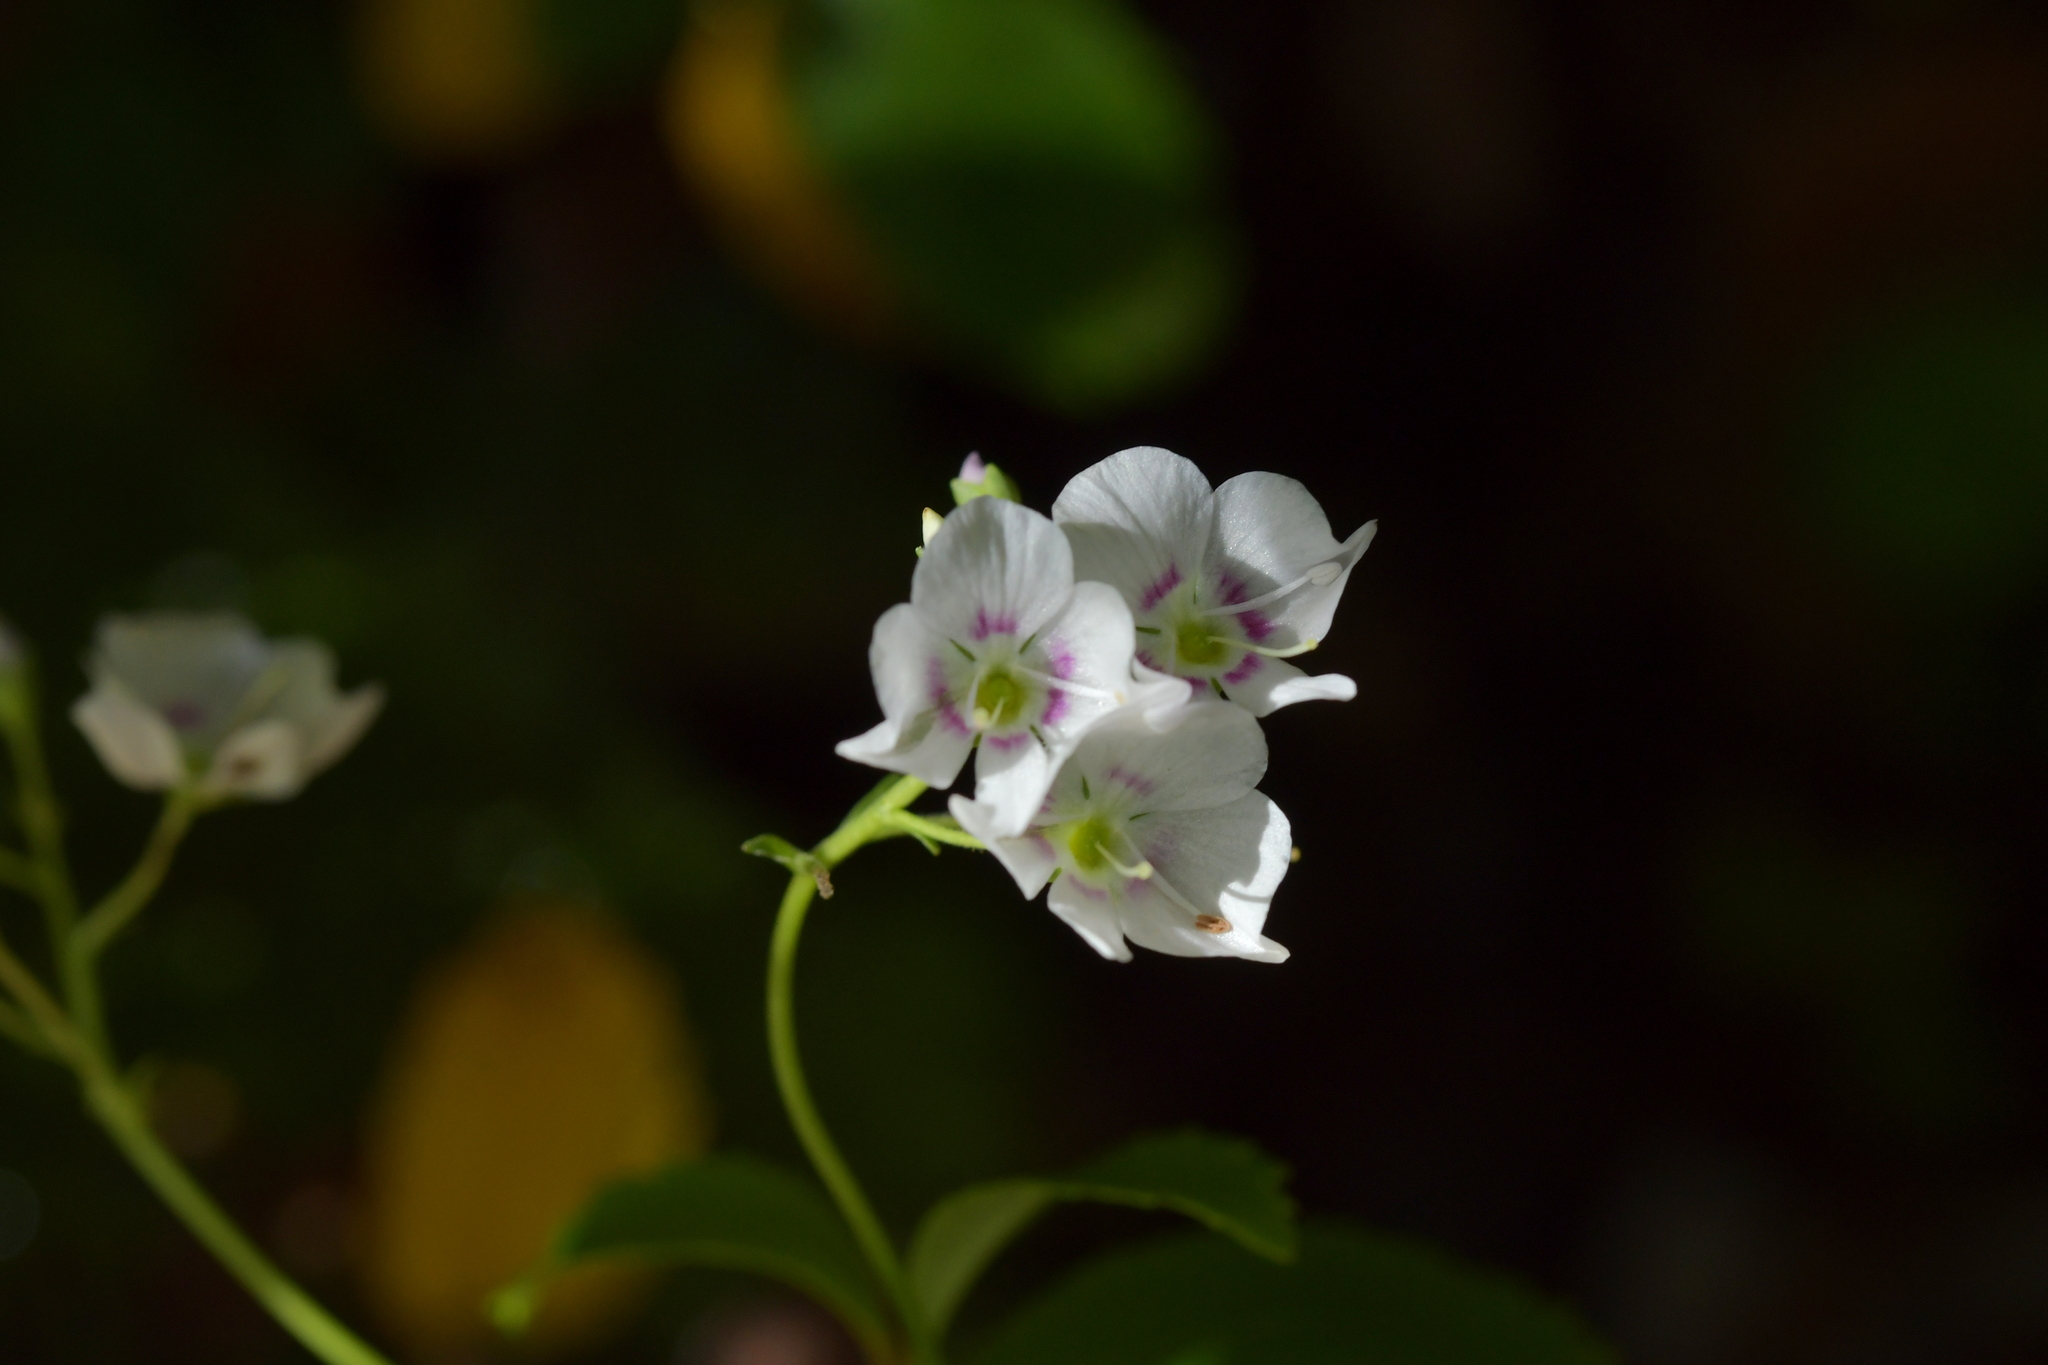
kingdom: Plantae
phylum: Tracheophyta
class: Magnoliopsida
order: Lamiales
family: Plantaginaceae
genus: Veronica
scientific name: Veronica lanceolata
